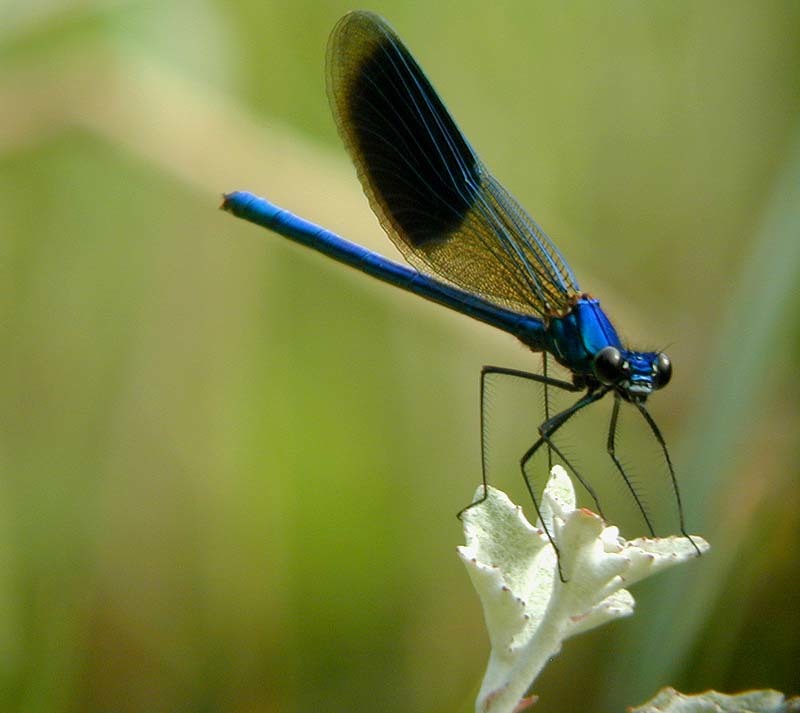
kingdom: Animalia
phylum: Arthropoda
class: Insecta
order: Odonata
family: Calopterygidae
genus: Calopteryx
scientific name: Calopteryx splendens
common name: Banded demoiselle
